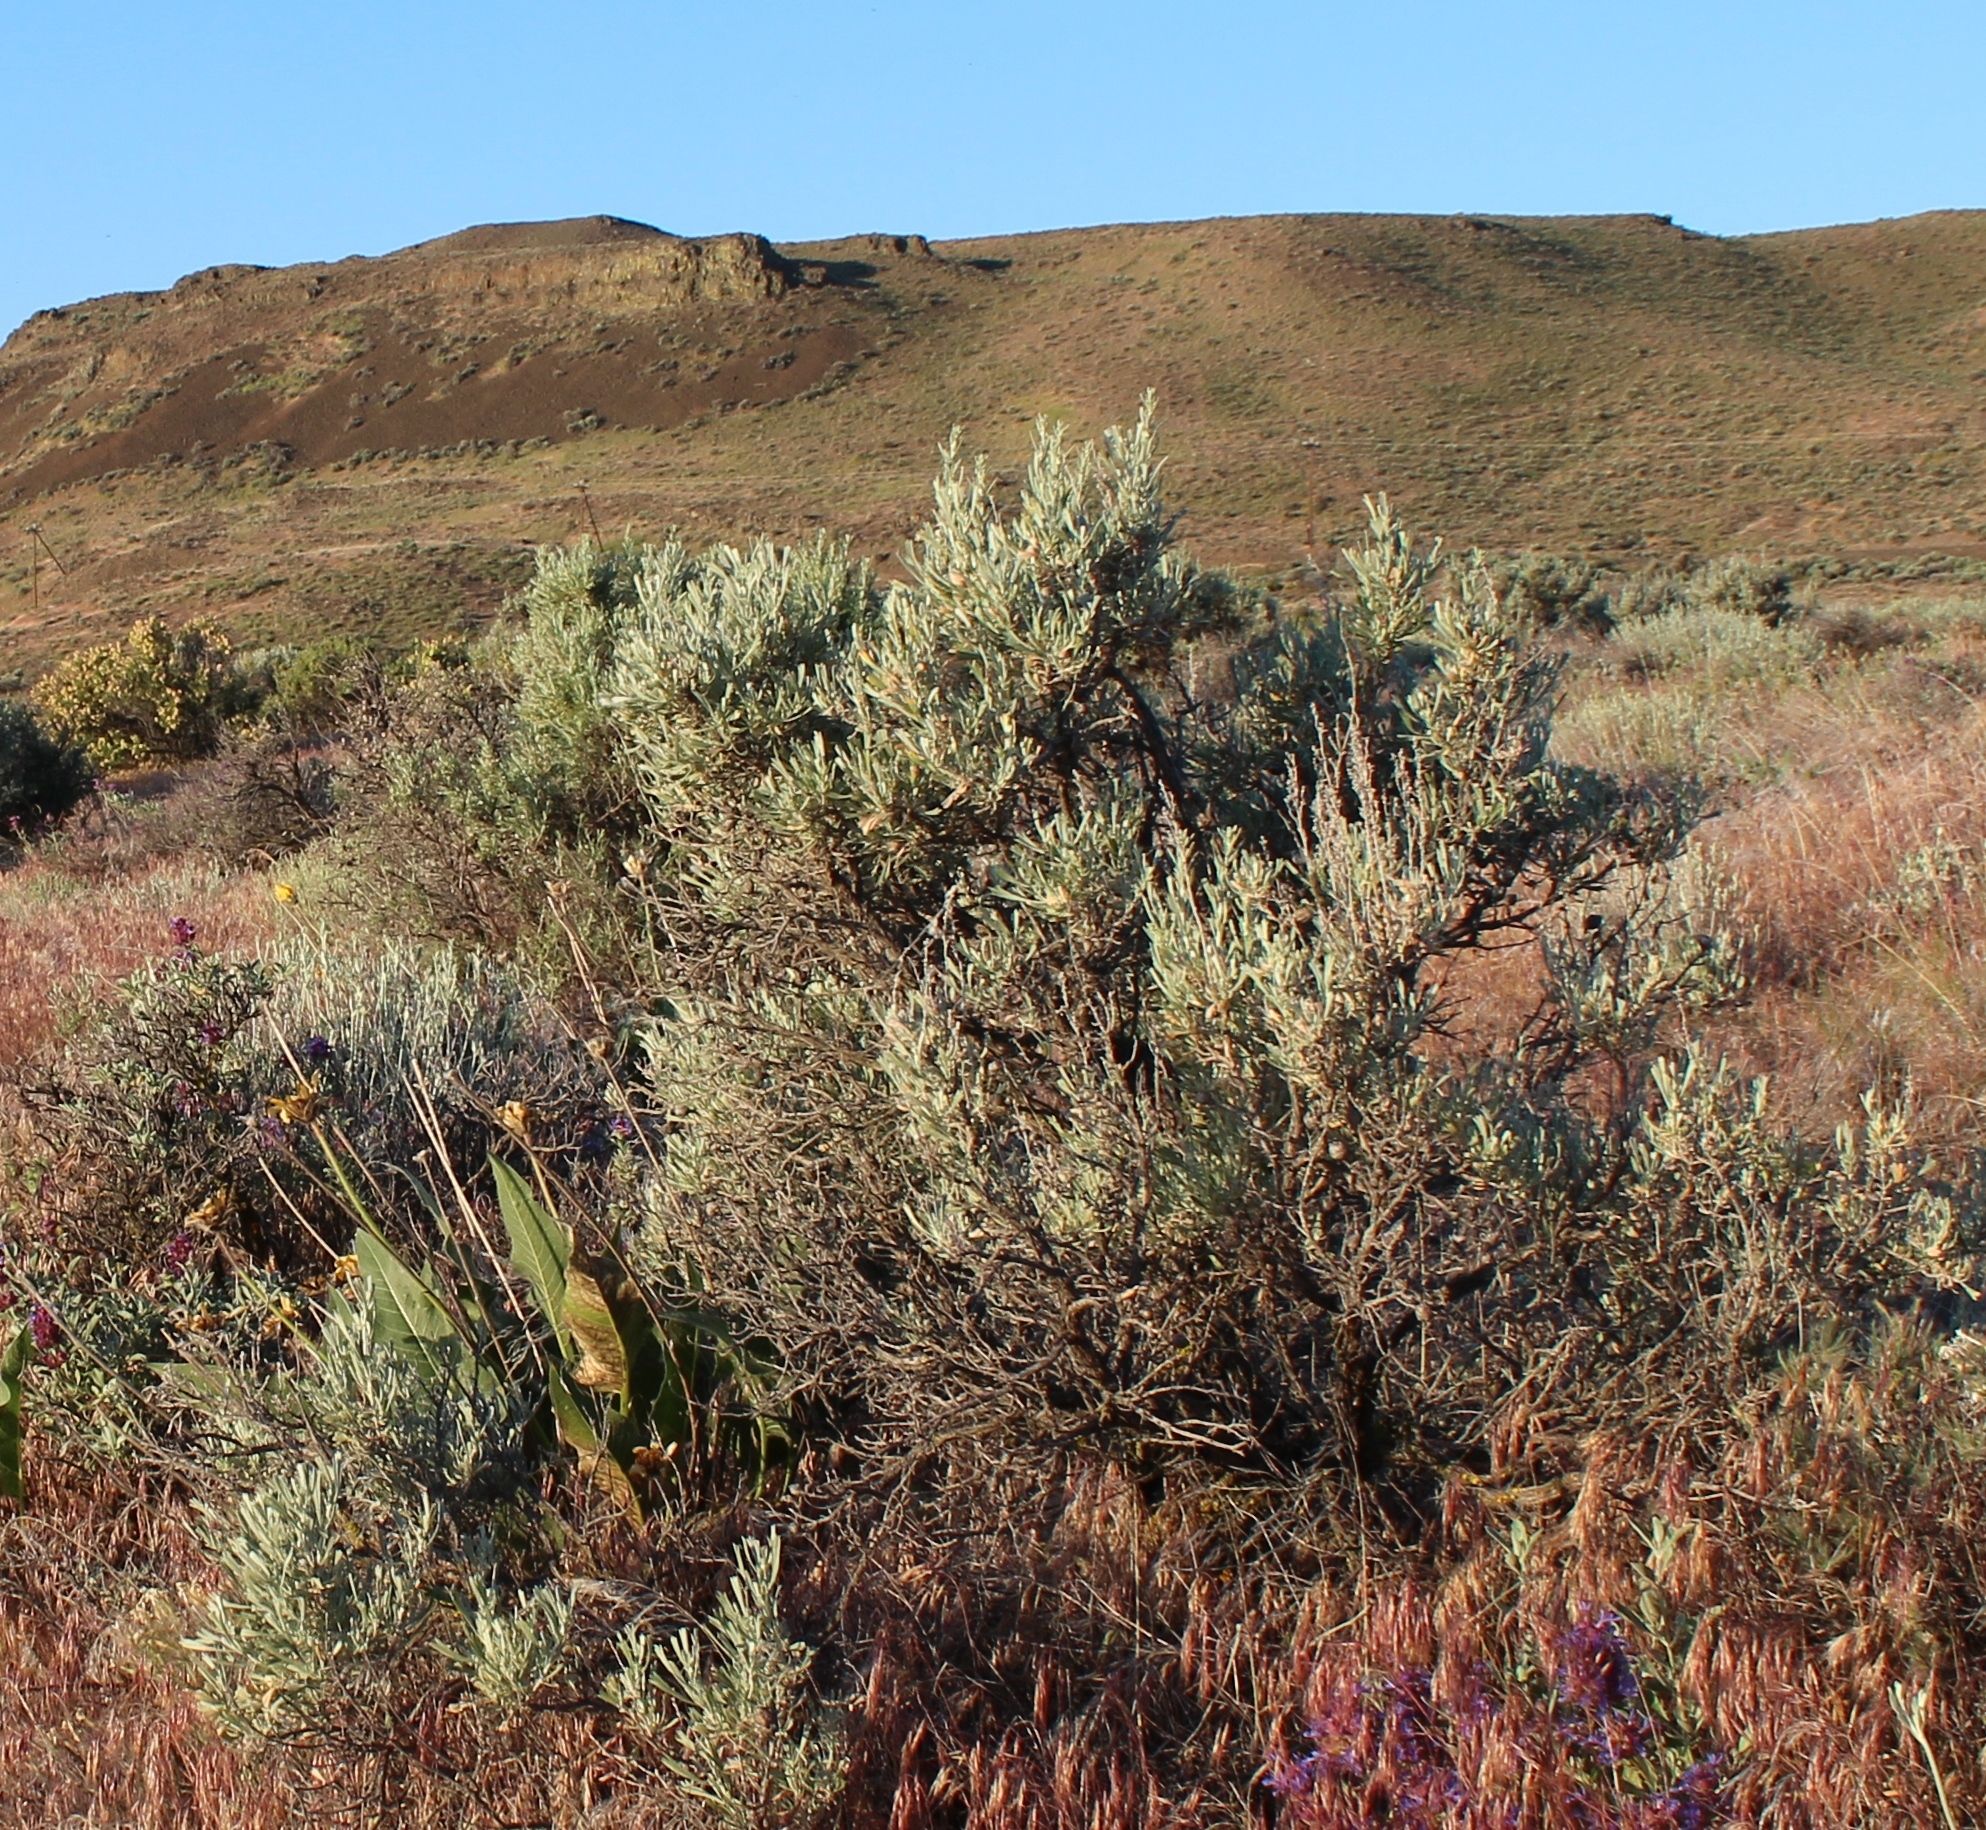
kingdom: Plantae
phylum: Tracheophyta
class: Magnoliopsida
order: Asterales
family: Asteraceae
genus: Artemisia
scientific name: Artemisia tridentata
